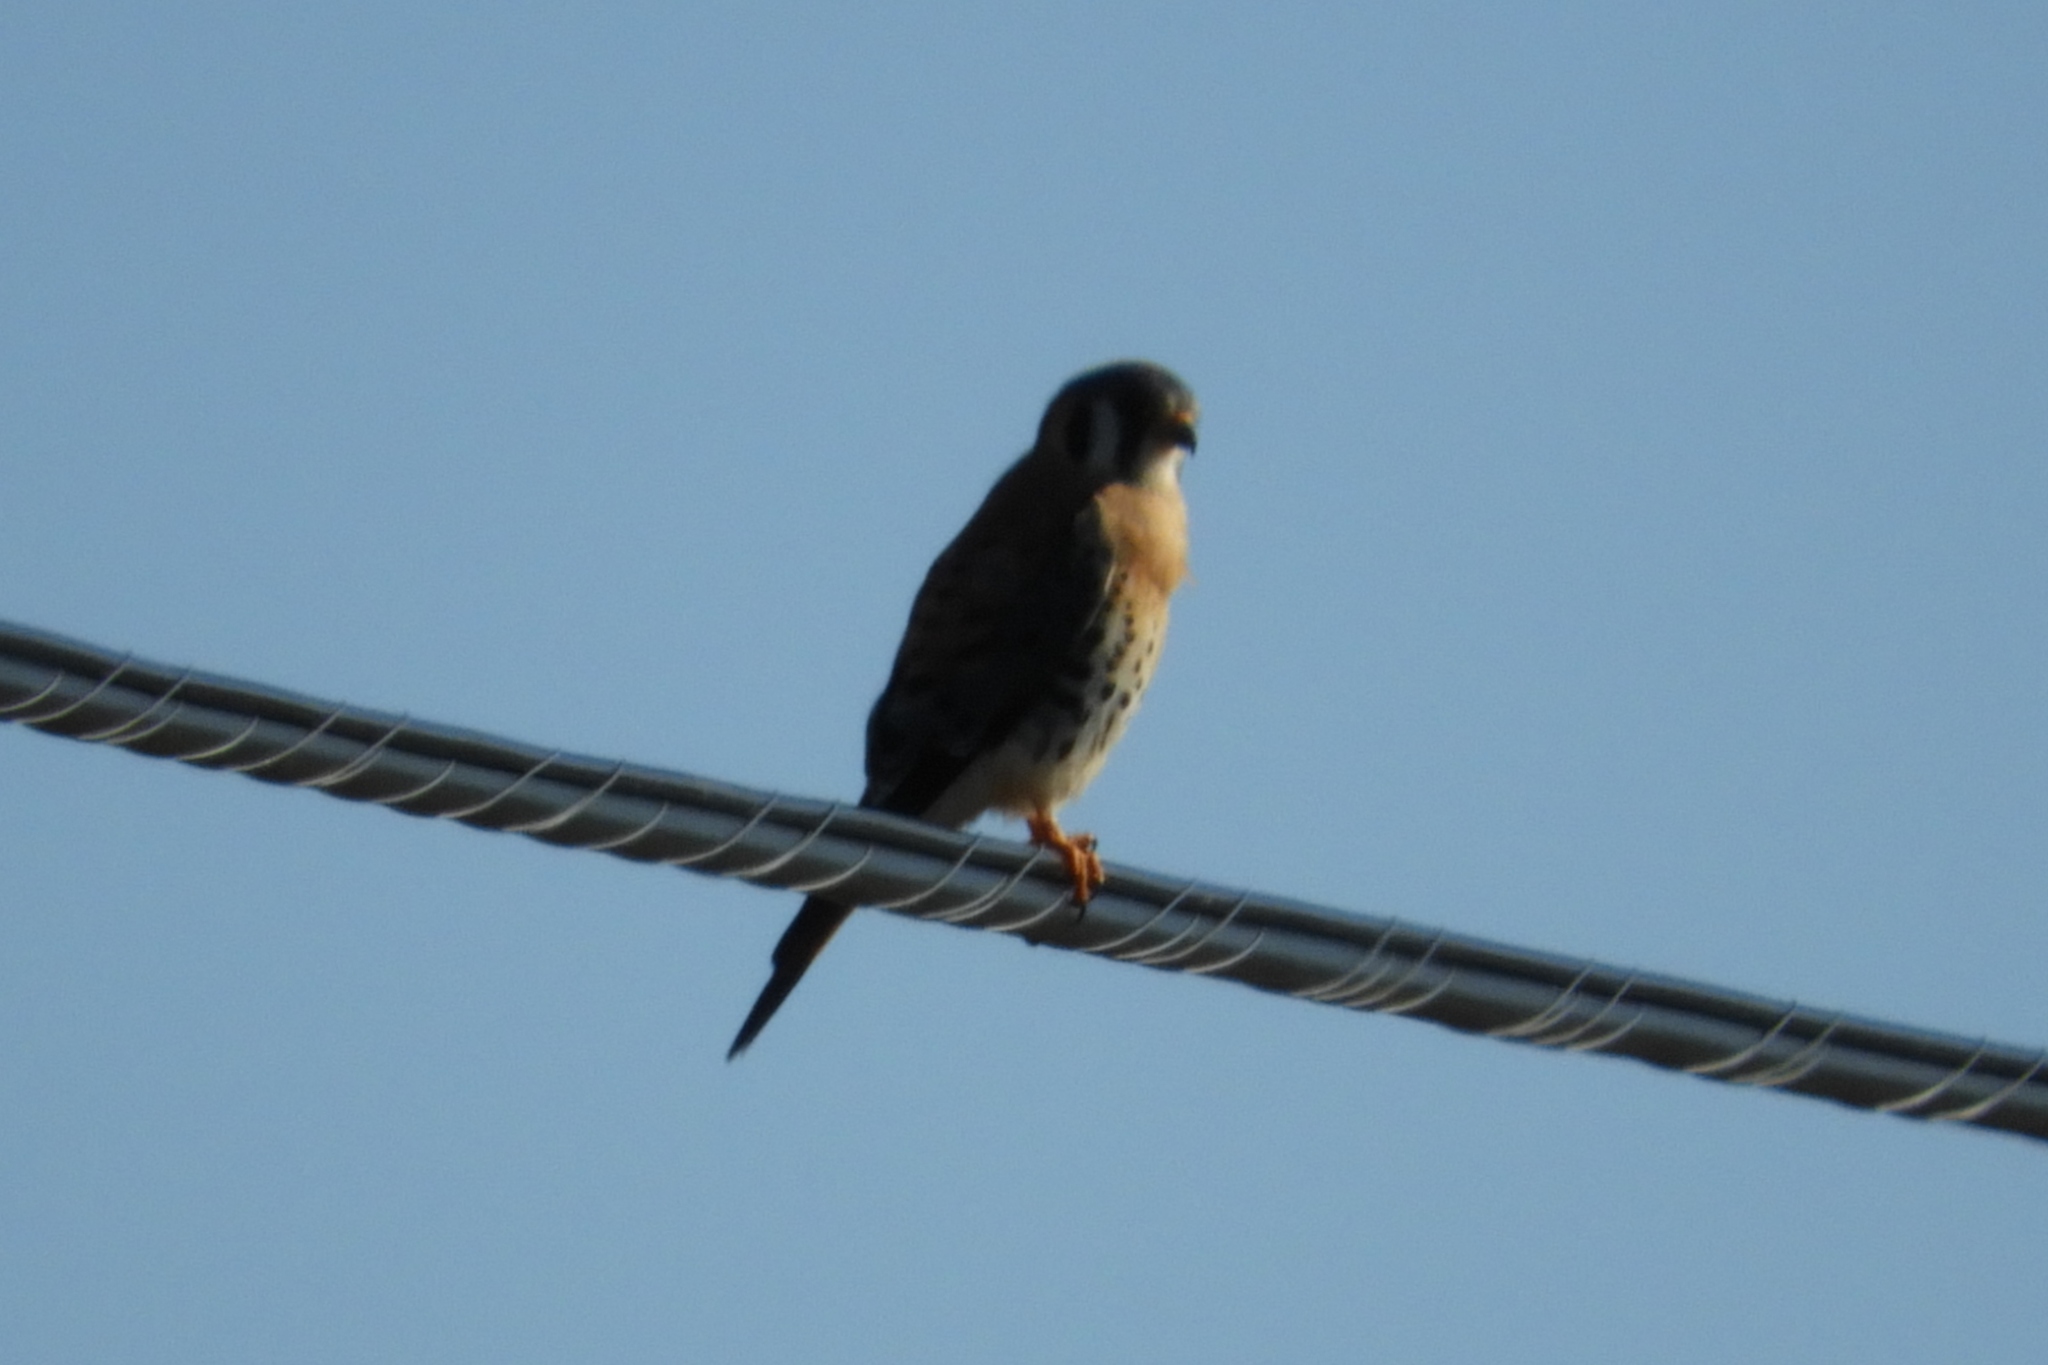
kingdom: Animalia
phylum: Chordata
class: Aves
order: Falconiformes
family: Falconidae
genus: Falco
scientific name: Falco sparverius
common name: American kestrel
